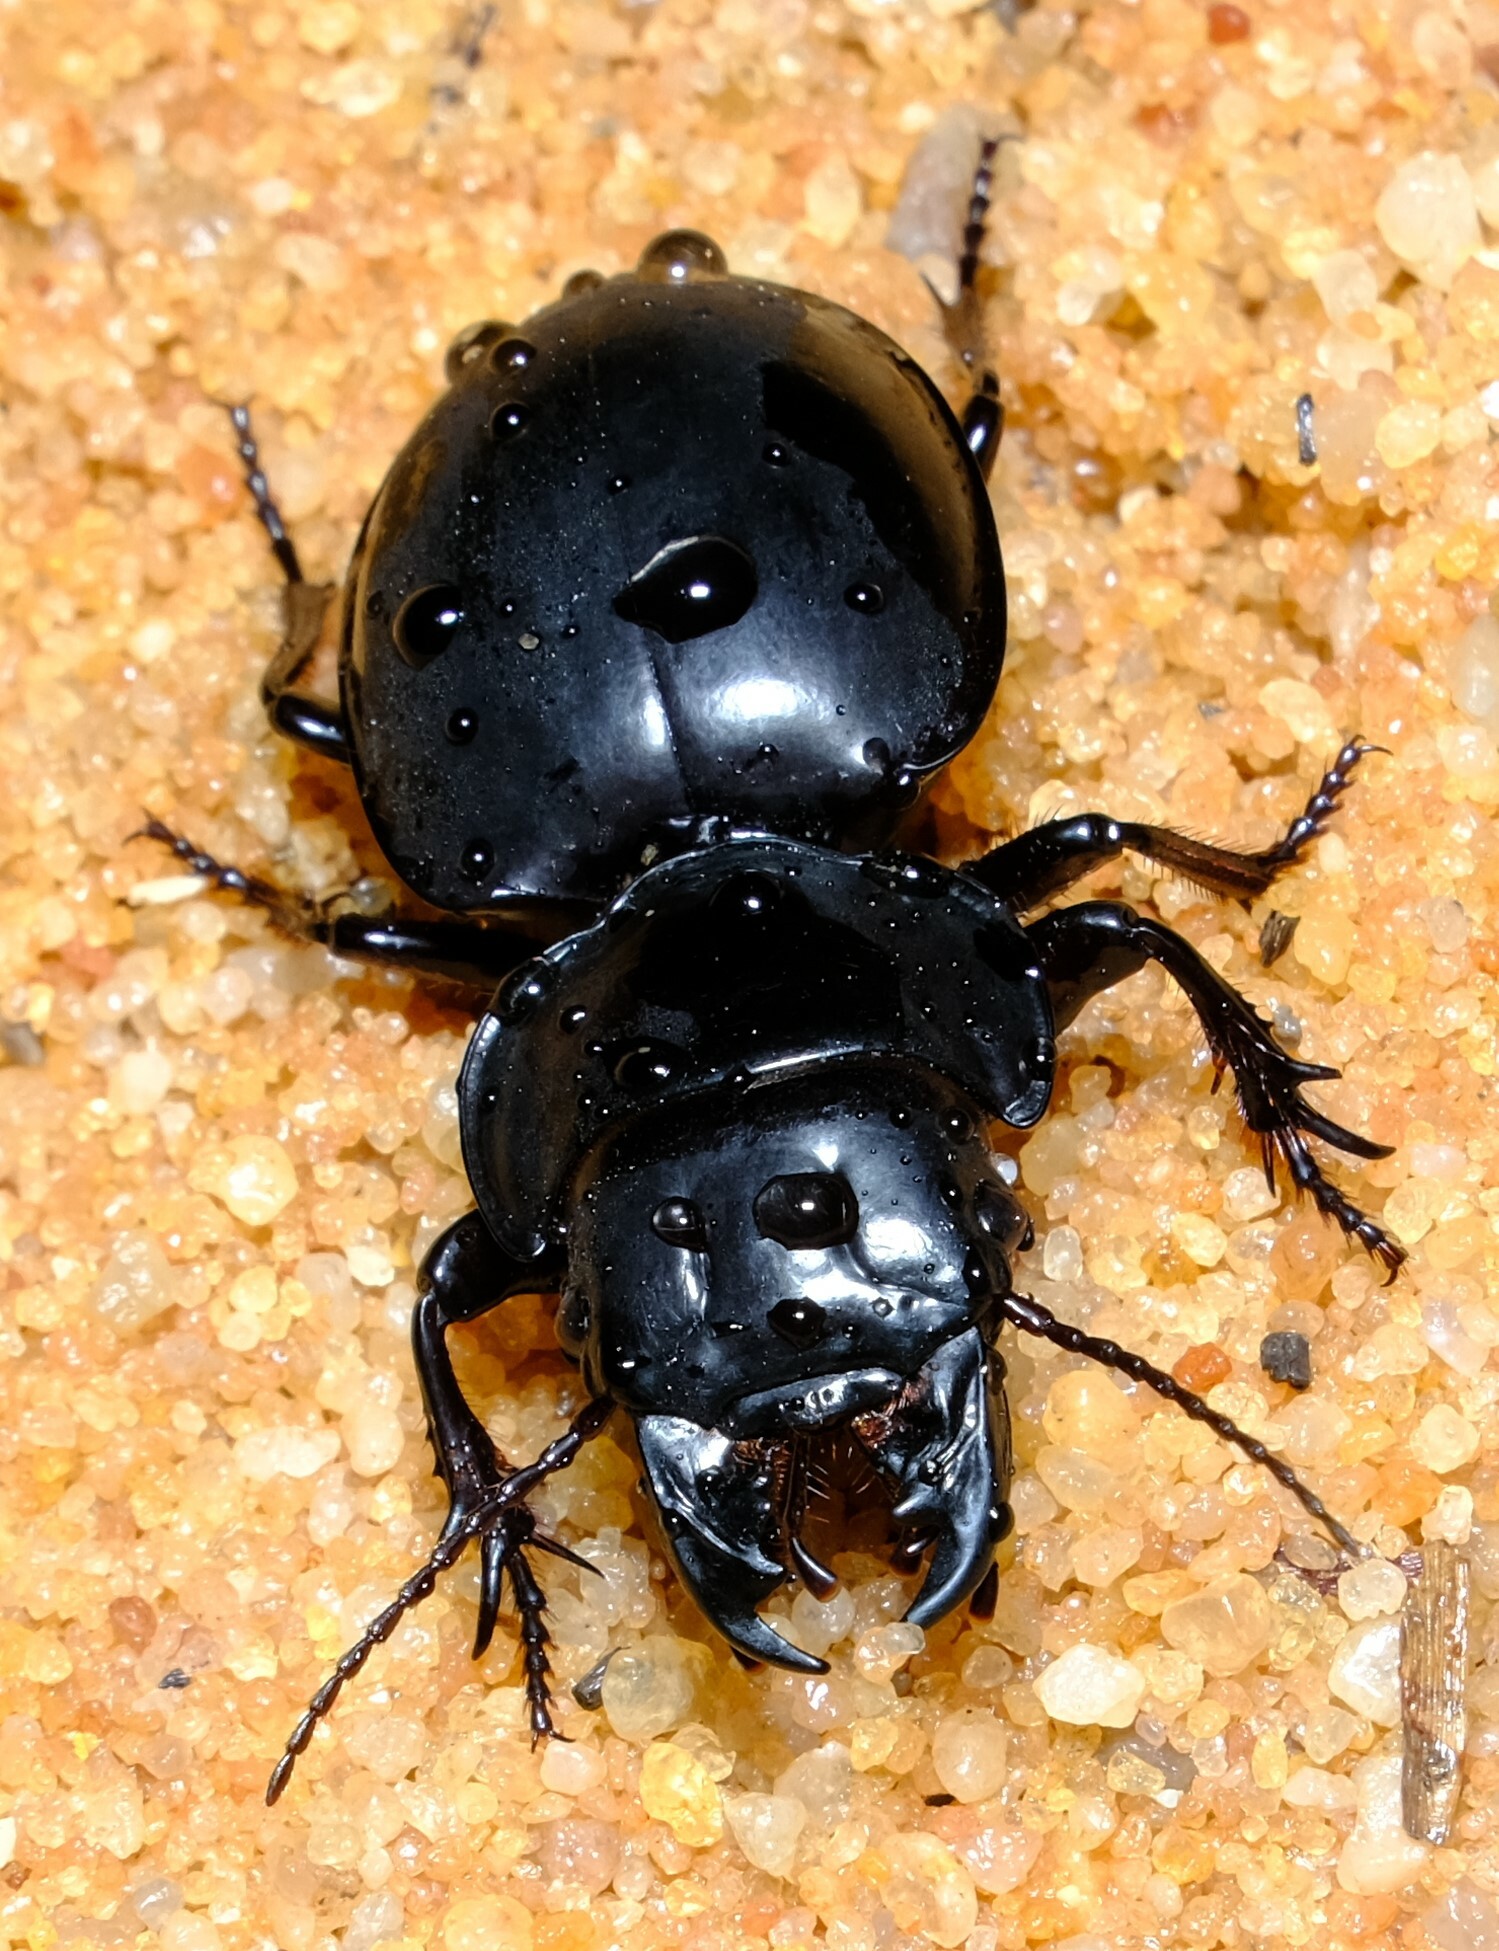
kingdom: Animalia
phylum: Arthropoda
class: Insecta
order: Coleoptera
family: Carabidae
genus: Euryscaphus
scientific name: Euryscaphus obesus
